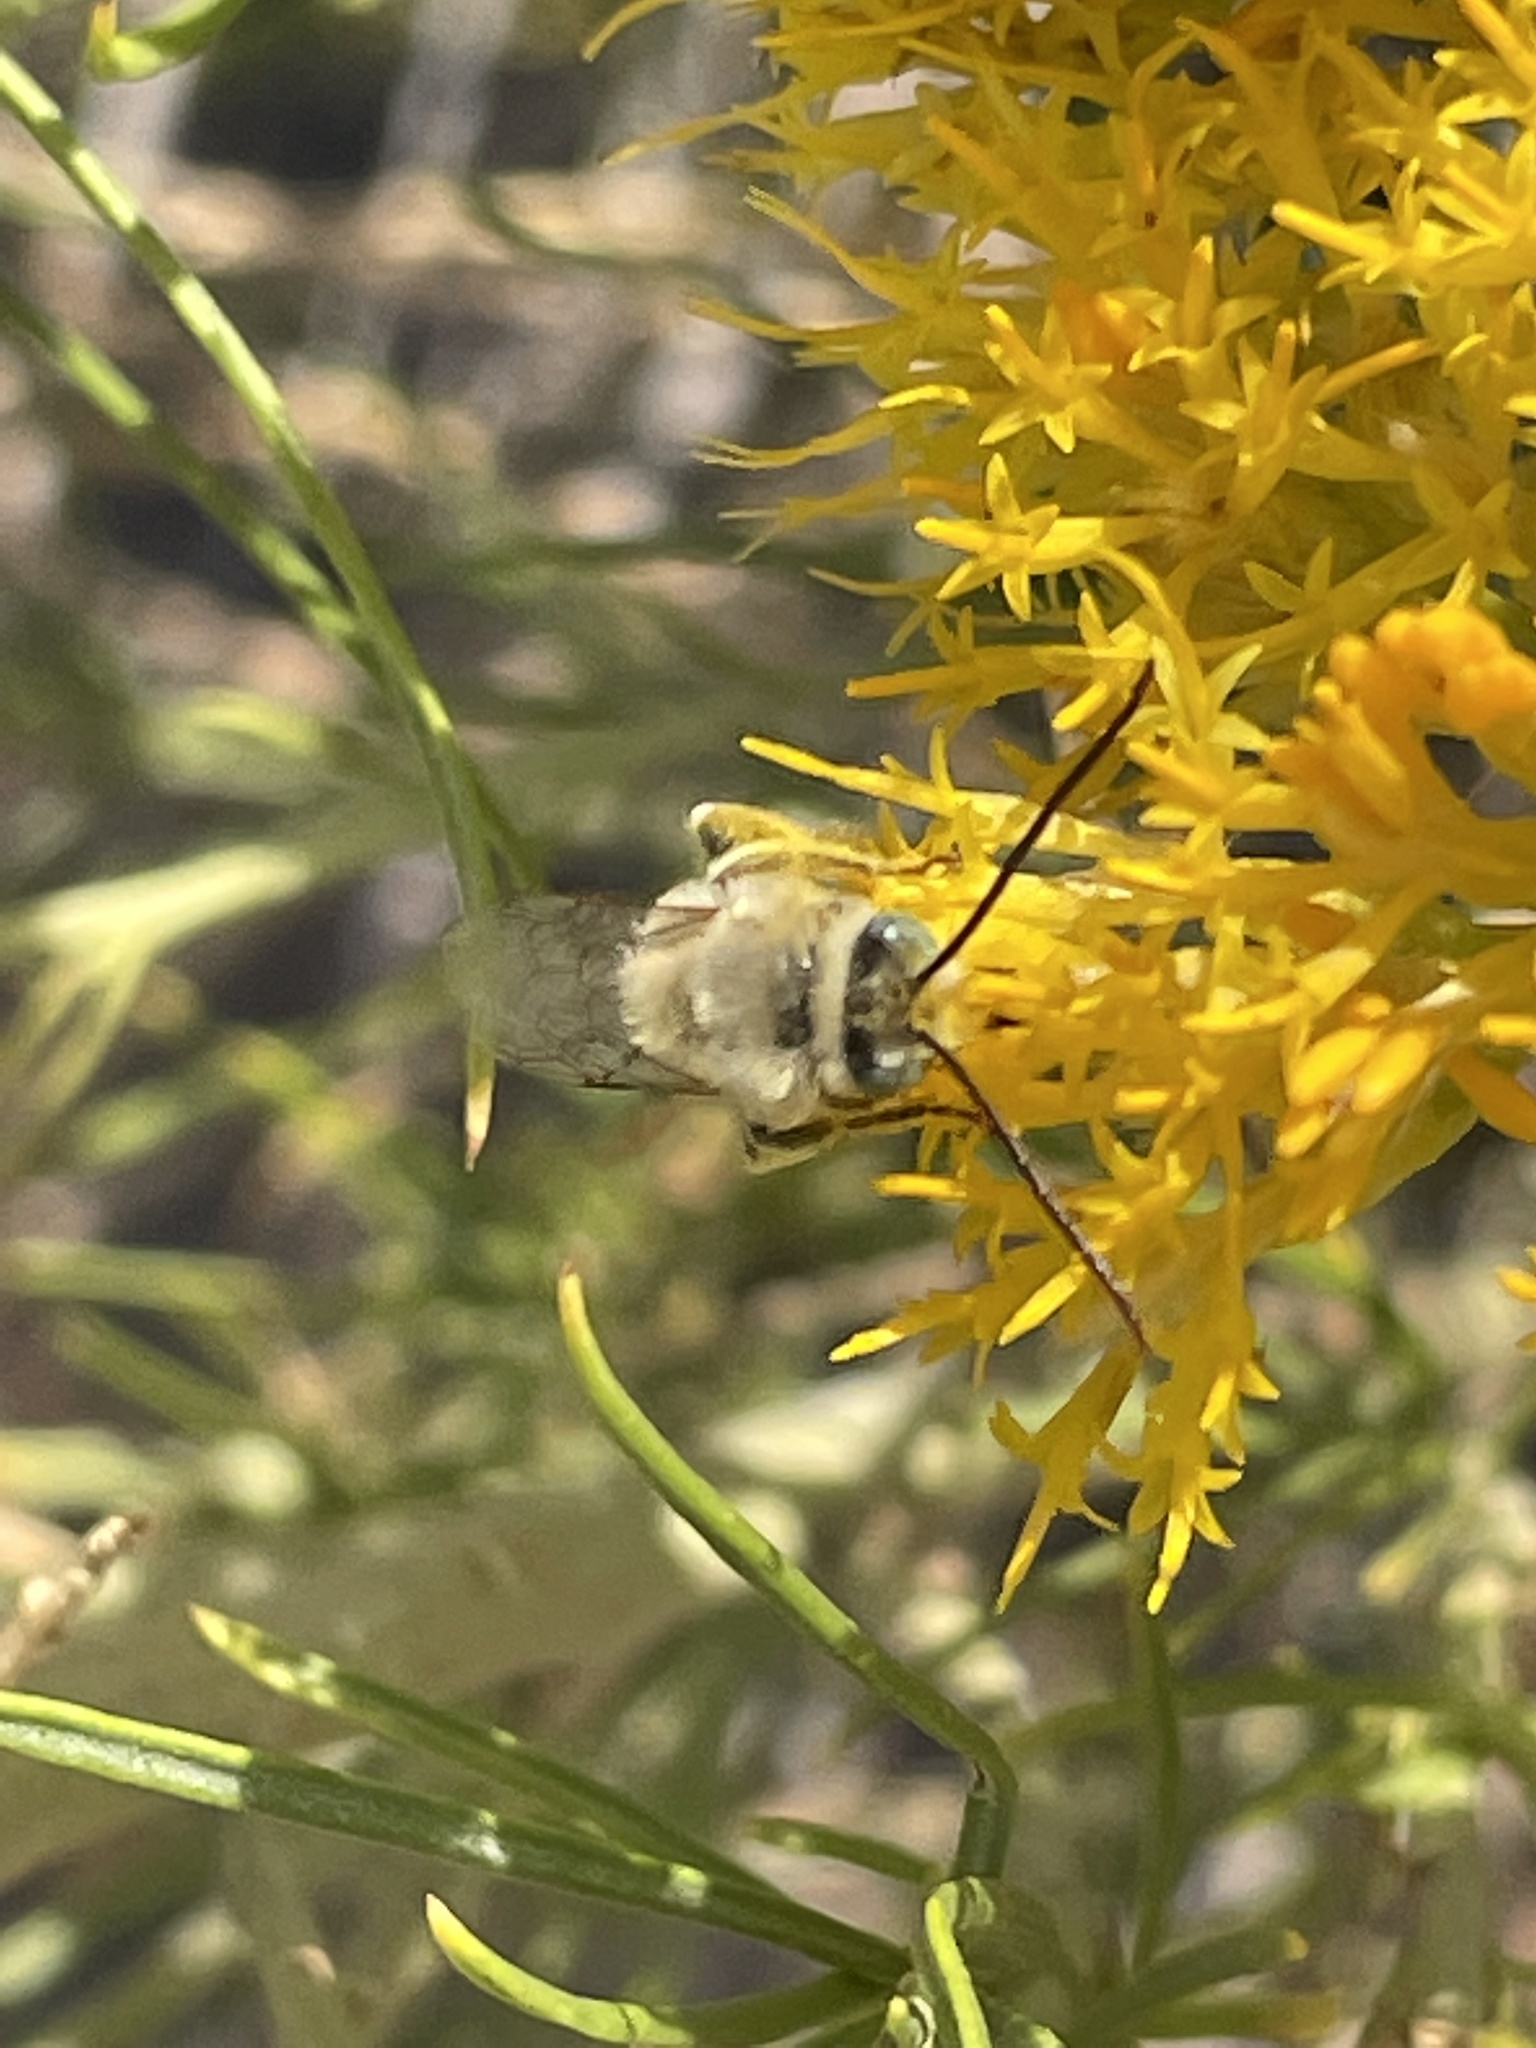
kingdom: Animalia
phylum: Arthropoda
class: Insecta
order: Hymenoptera
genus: Eumelissodes
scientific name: Eumelissodes
